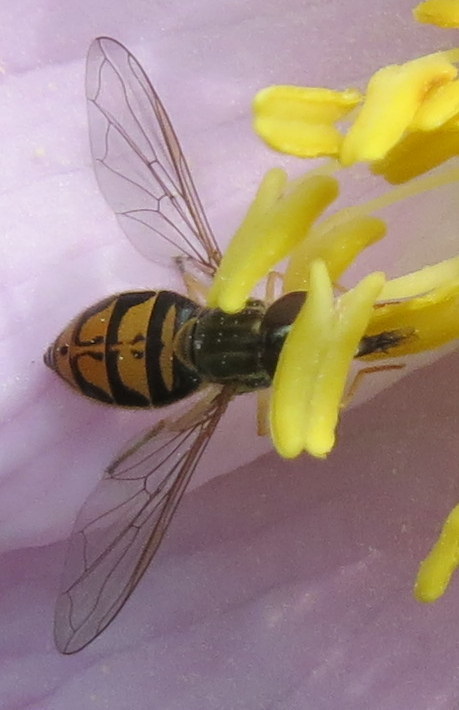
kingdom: Animalia
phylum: Arthropoda
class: Insecta
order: Diptera
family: Syrphidae
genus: Toxomerus
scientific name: Toxomerus marginatus
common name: Syrphid fly
